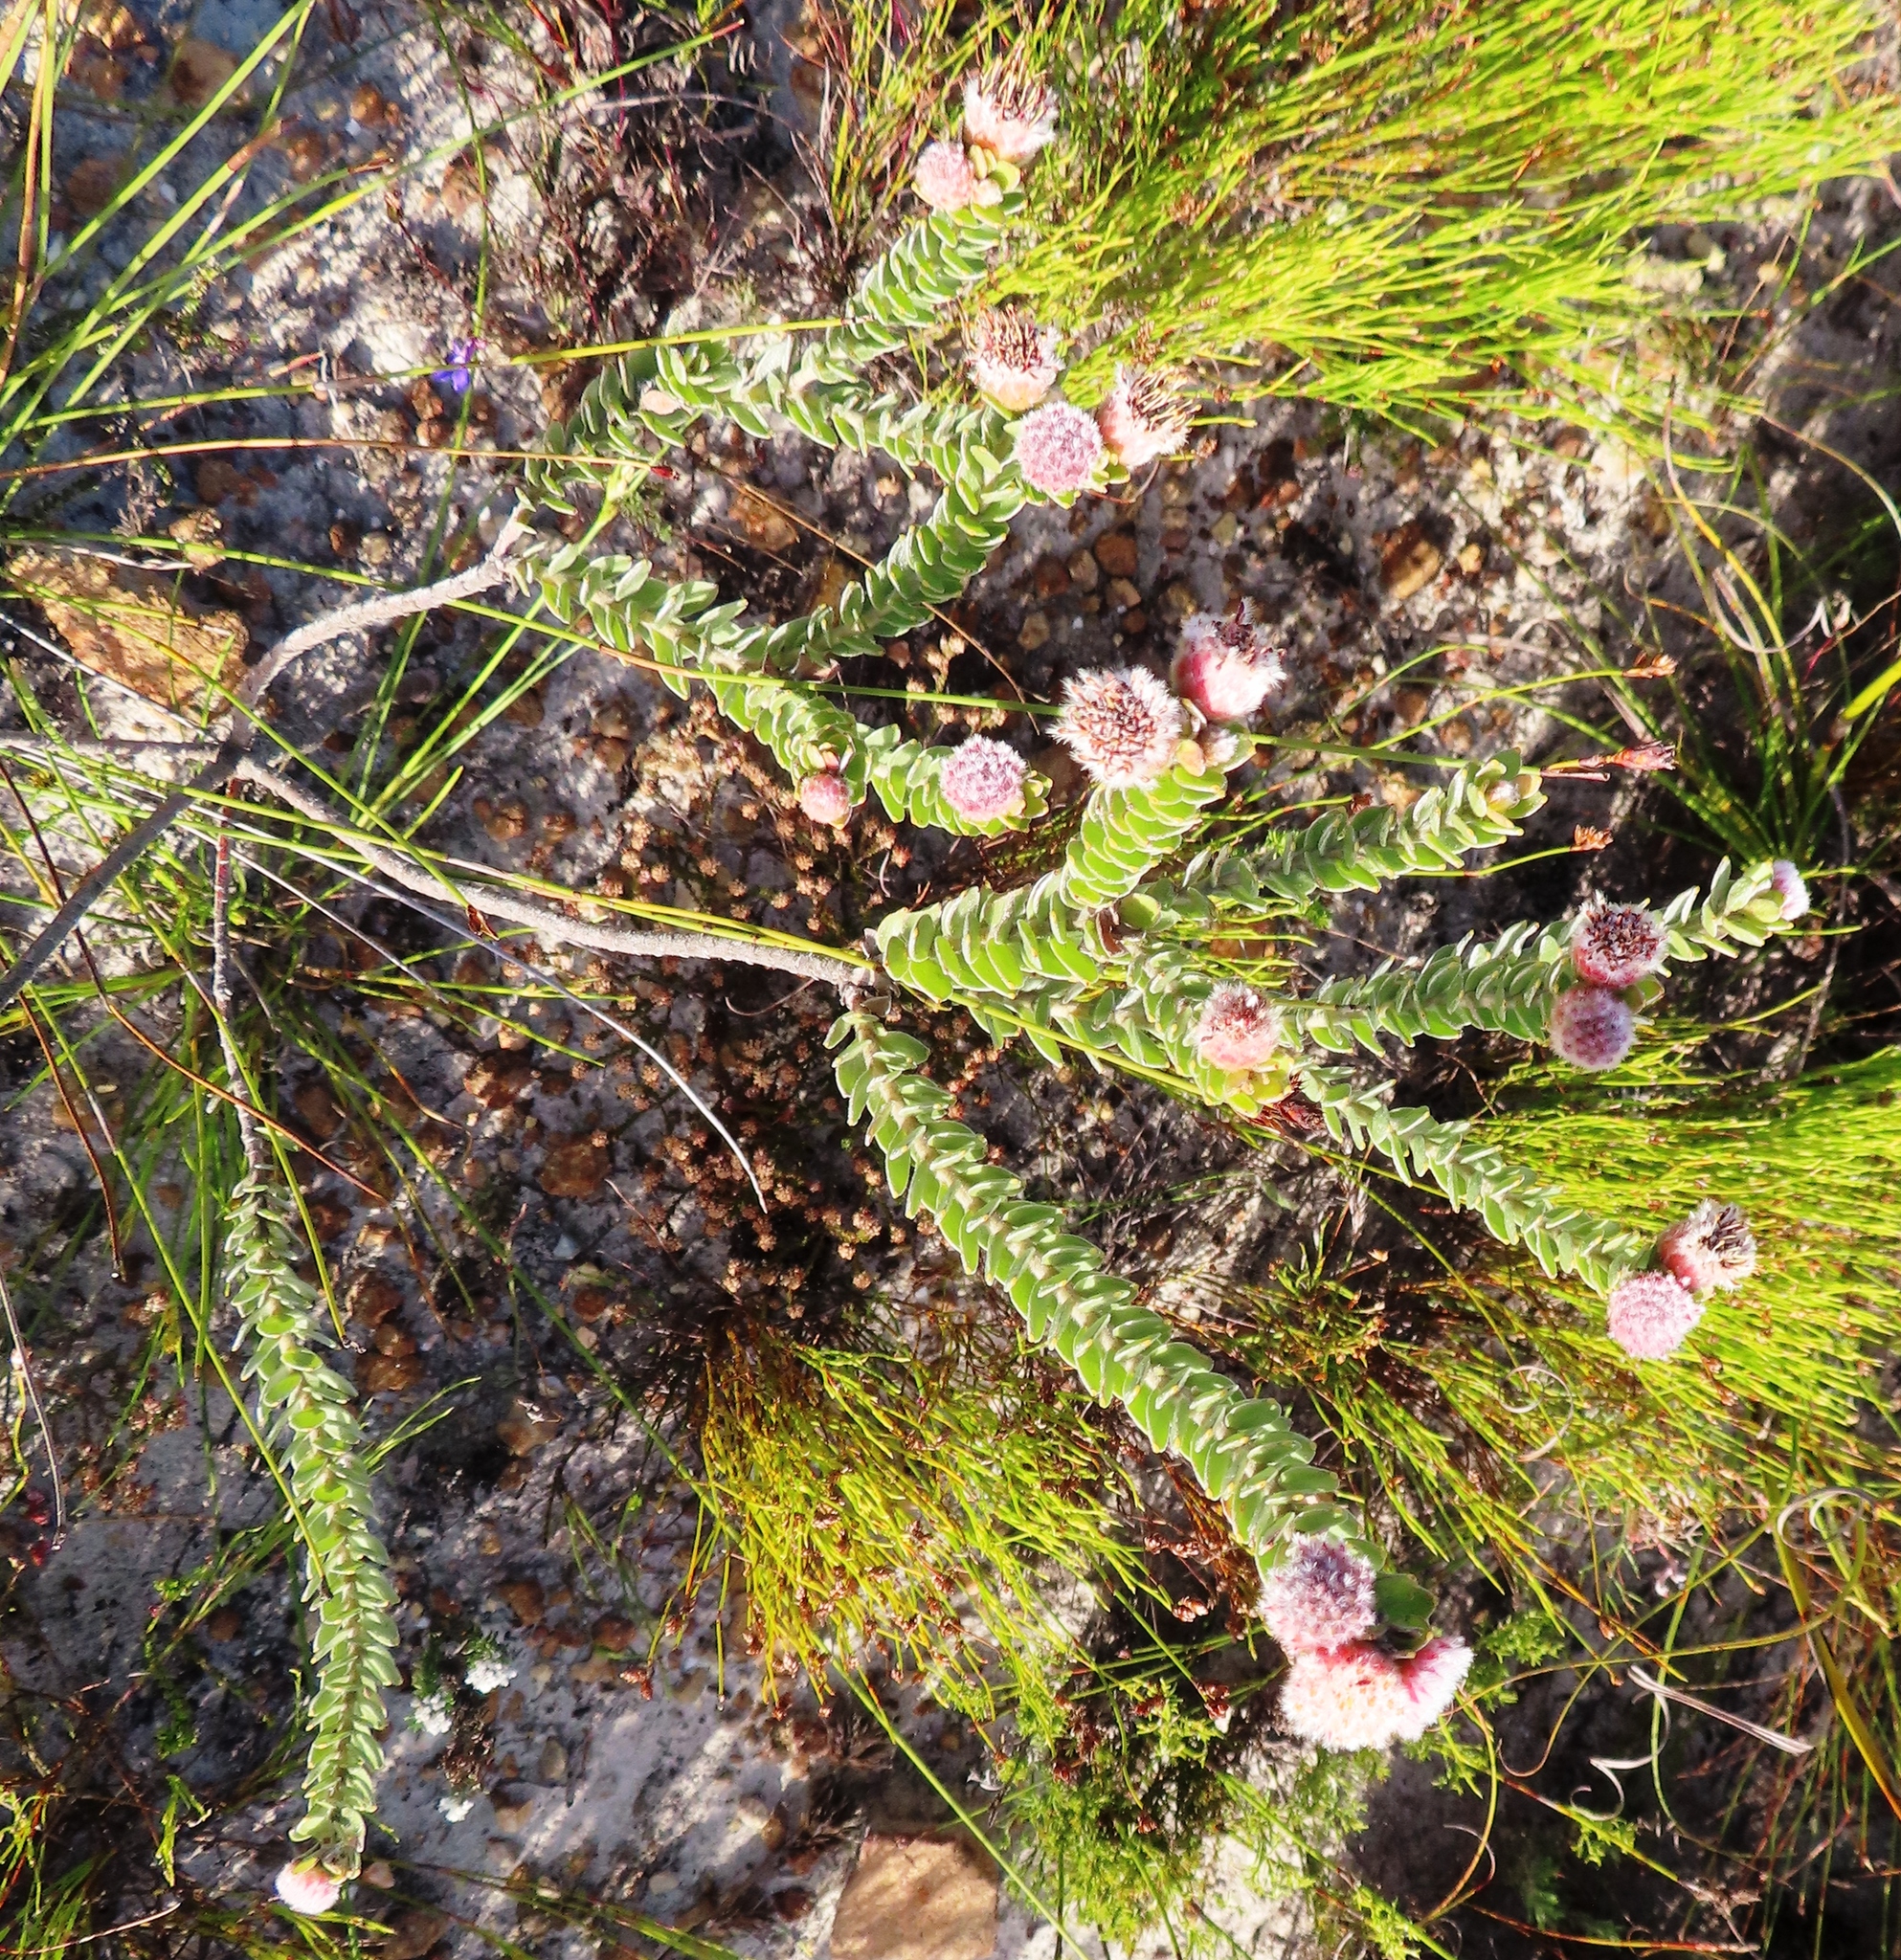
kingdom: Plantae
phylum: Tracheophyta
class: Magnoliopsida
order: Proteales
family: Proteaceae
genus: Leucospermum
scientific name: Leucospermum truncatulum
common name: Oval-leaf pincushion
